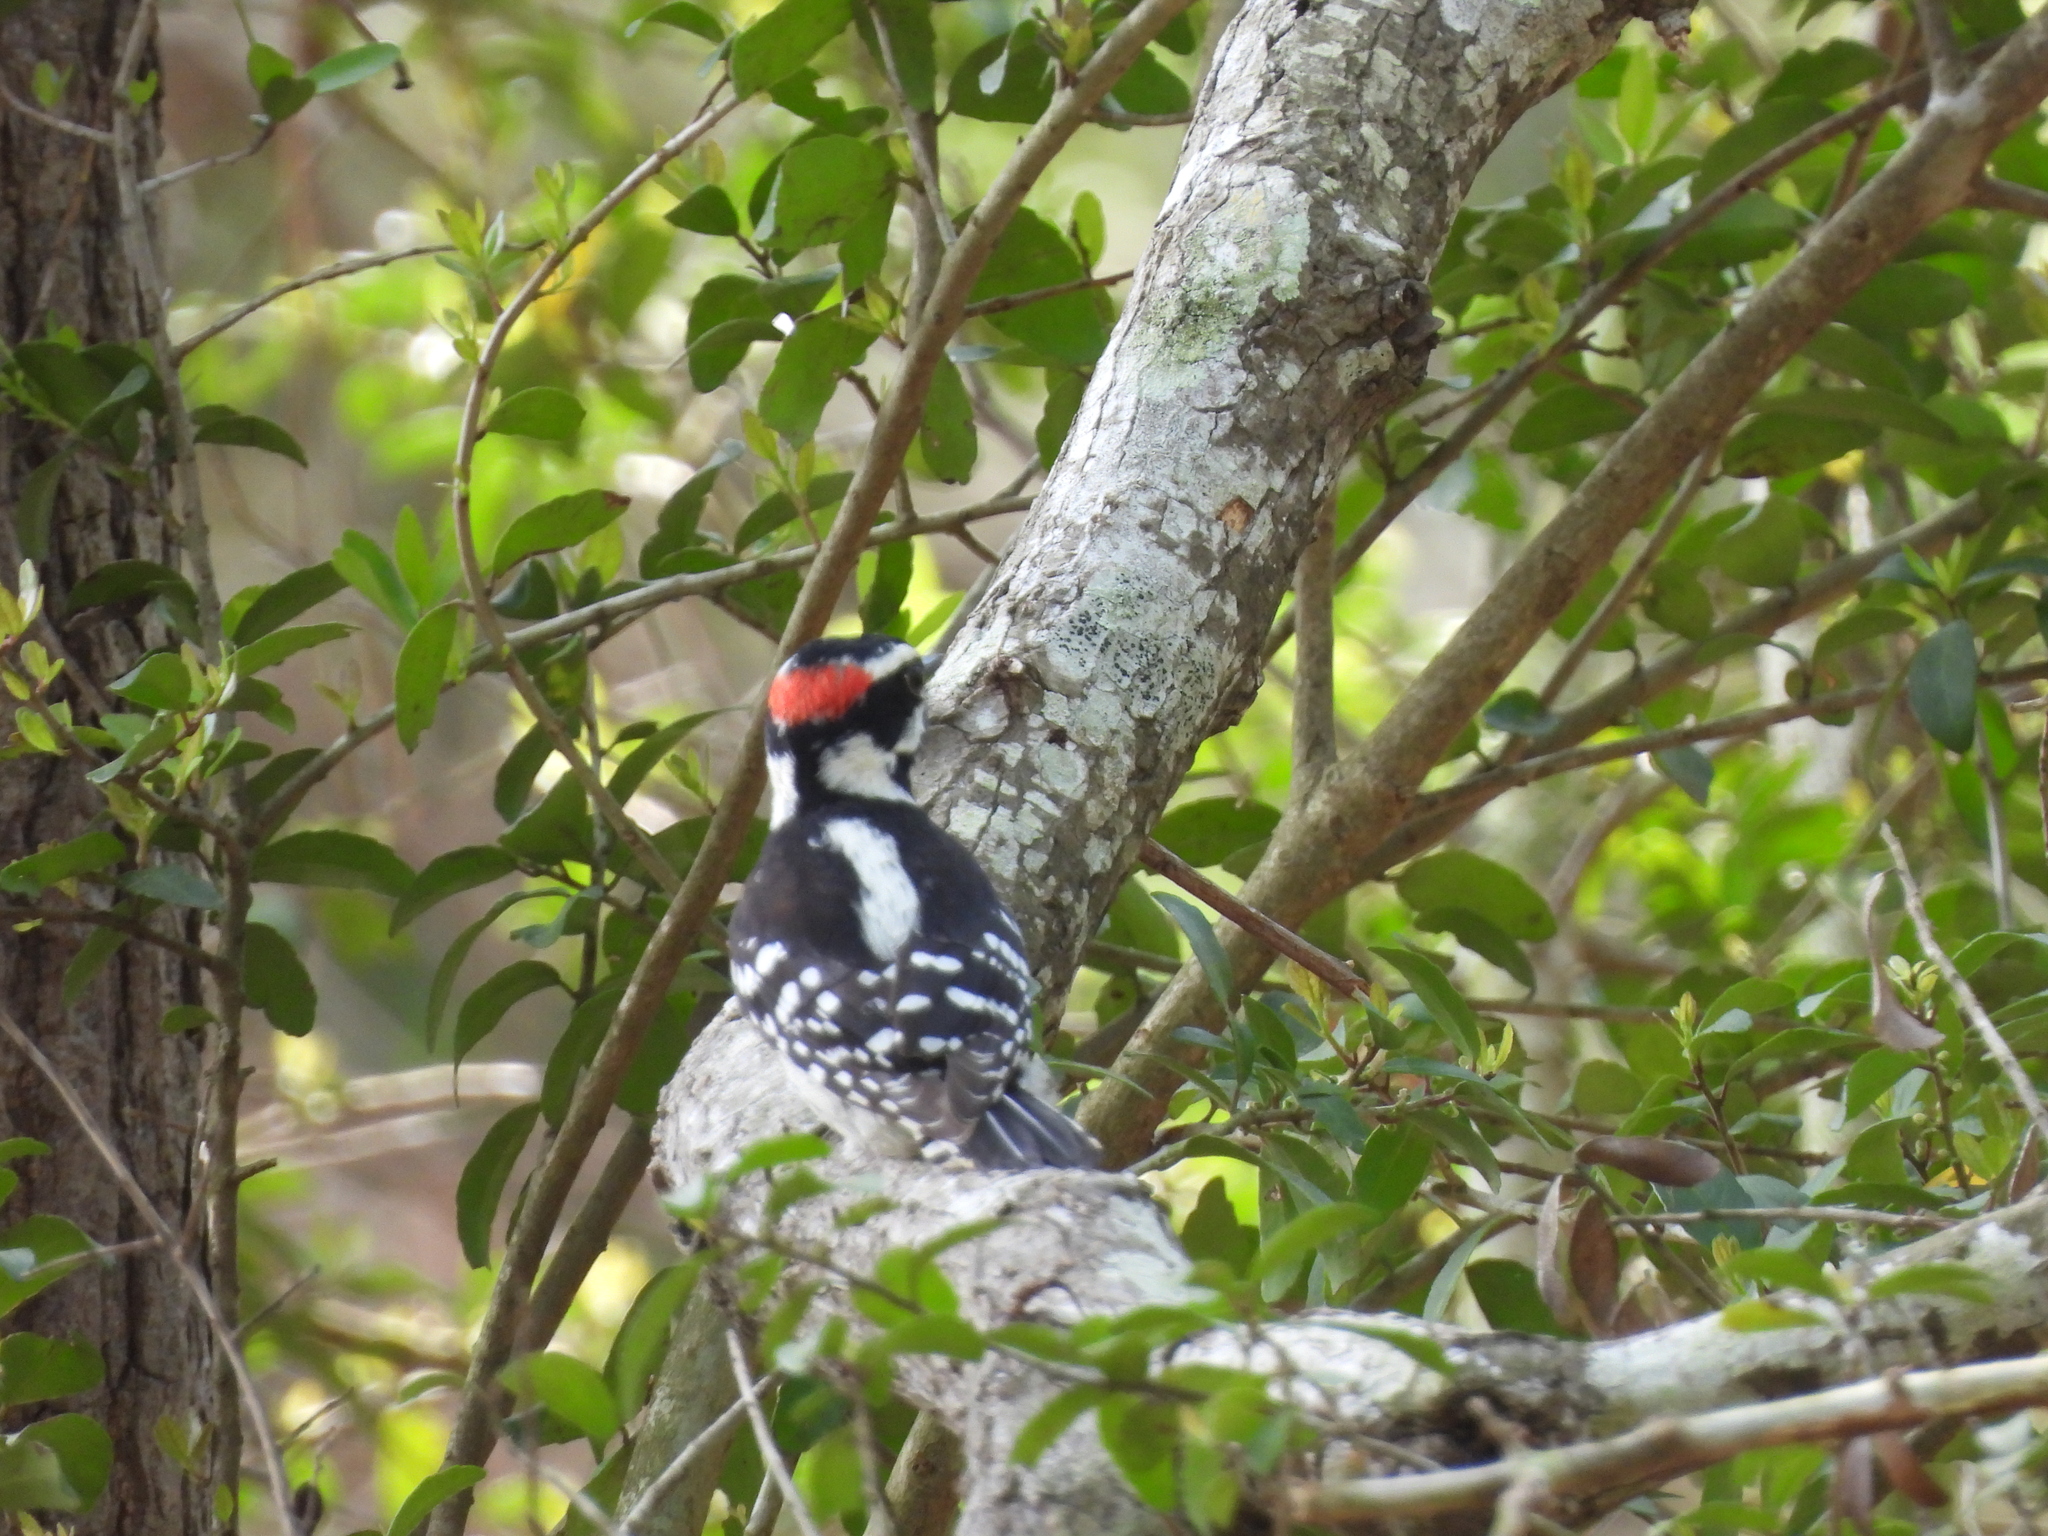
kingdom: Animalia
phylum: Chordata
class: Aves
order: Piciformes
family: Picidae
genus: Dryobates
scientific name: Dryobates pubescens
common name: Downy woodpecker
